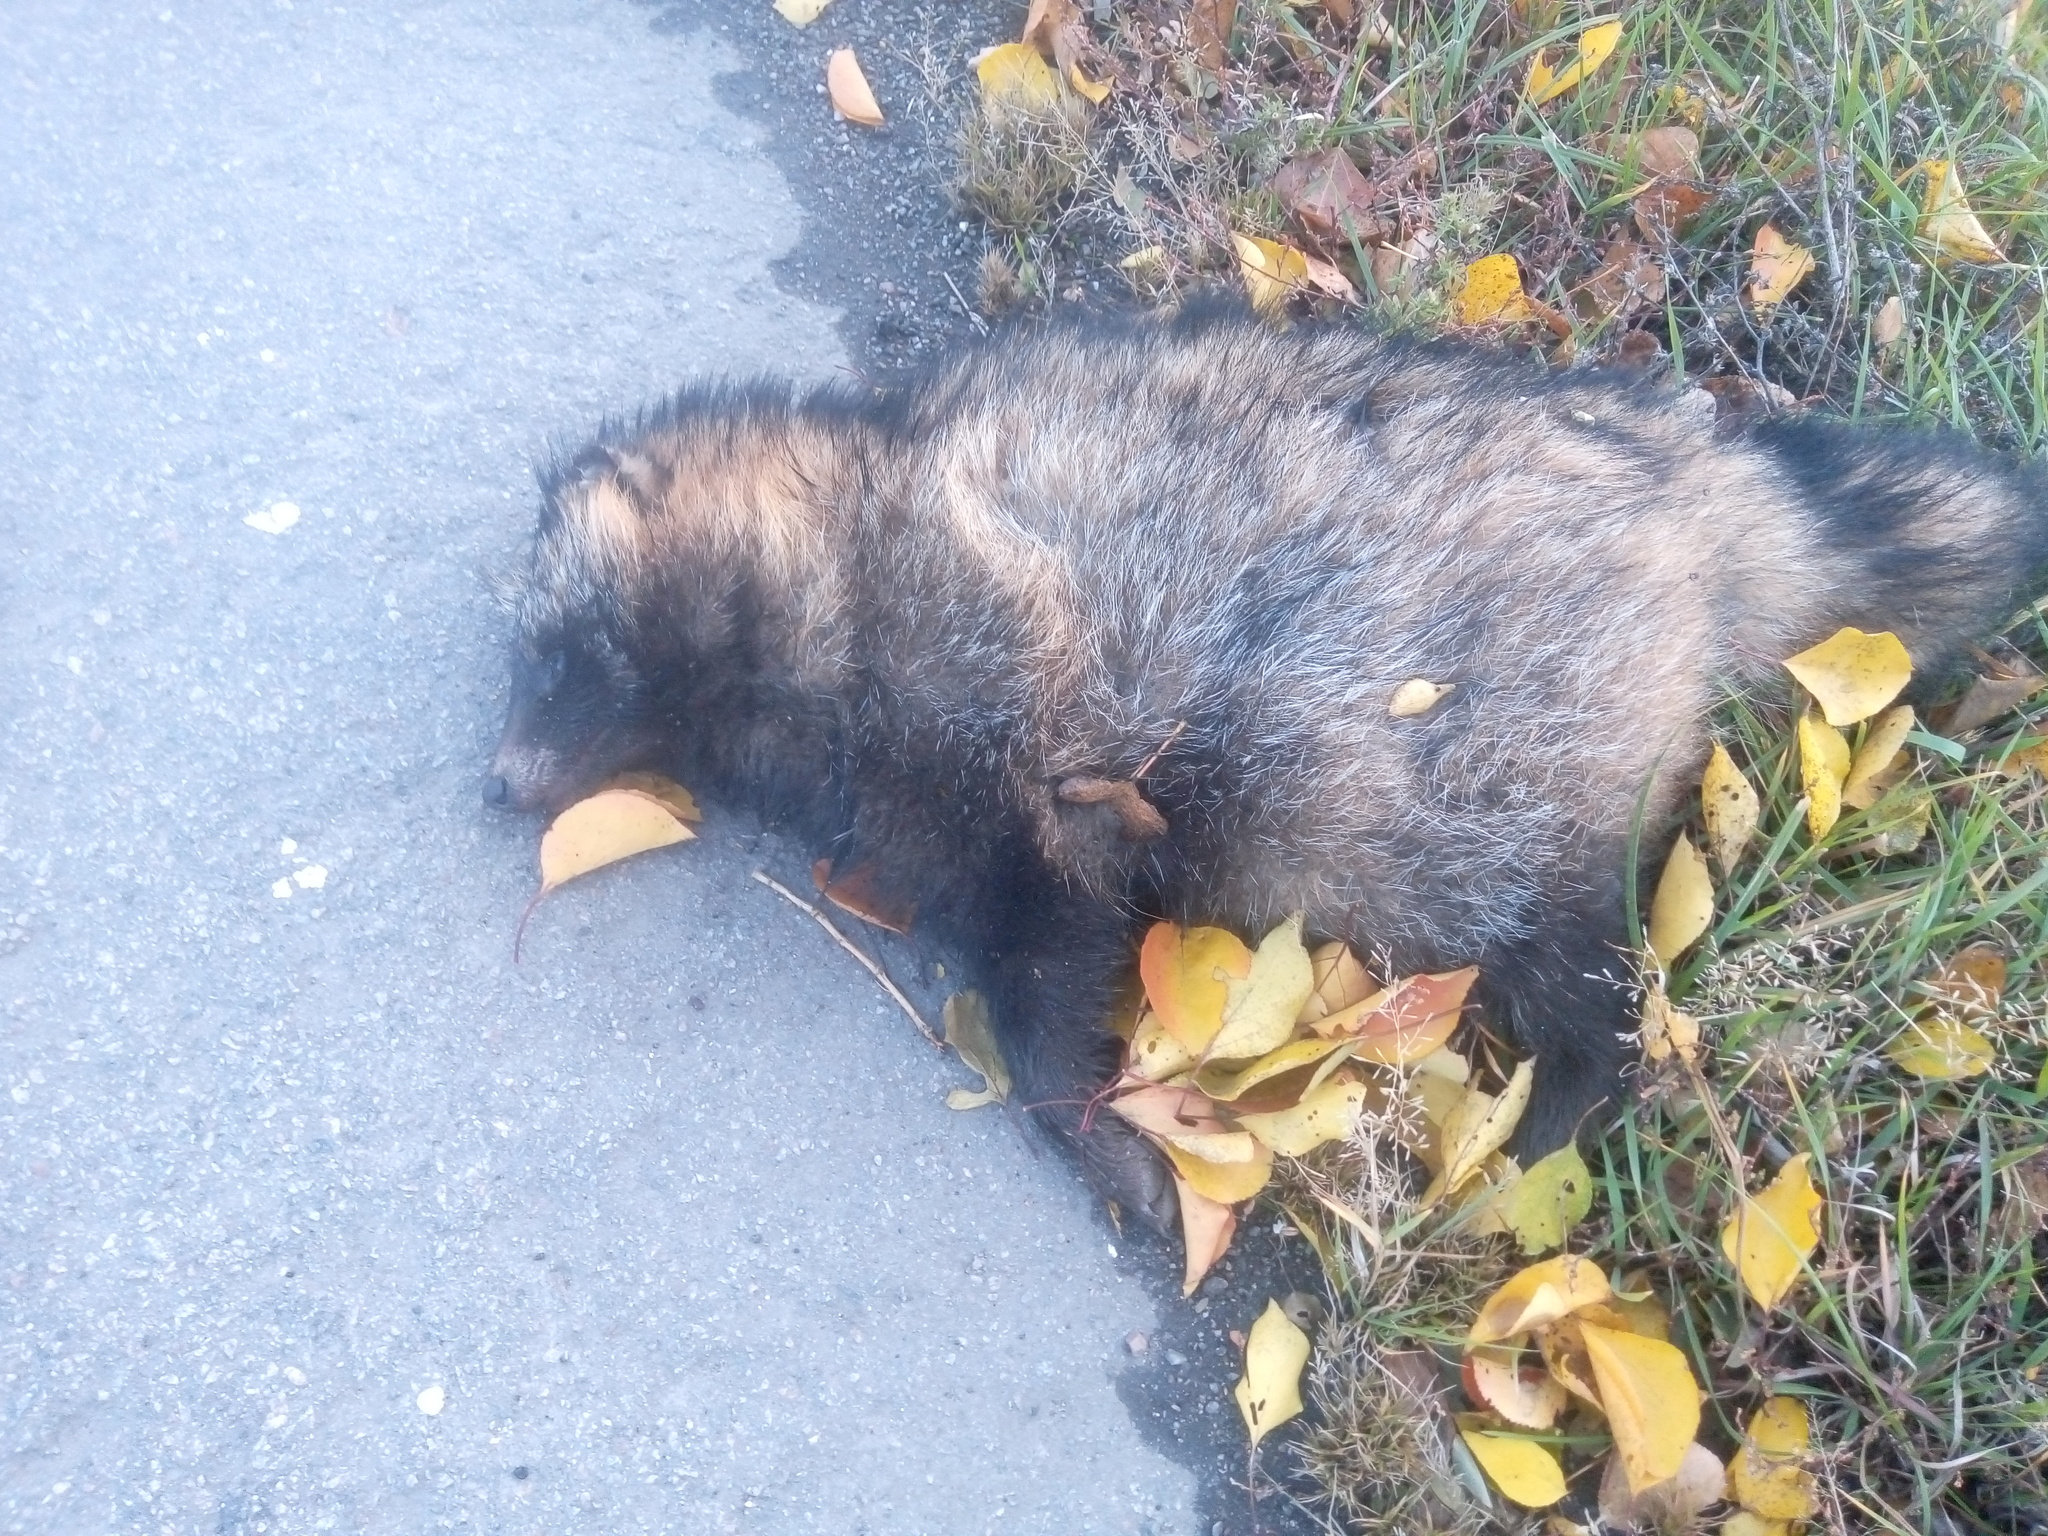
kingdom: Animalia
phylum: Chordata
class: Mammalia
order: Carnivora
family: Canidae
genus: Nyctereutes
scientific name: Nyctereutes procyonoides
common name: Raccoon dog
